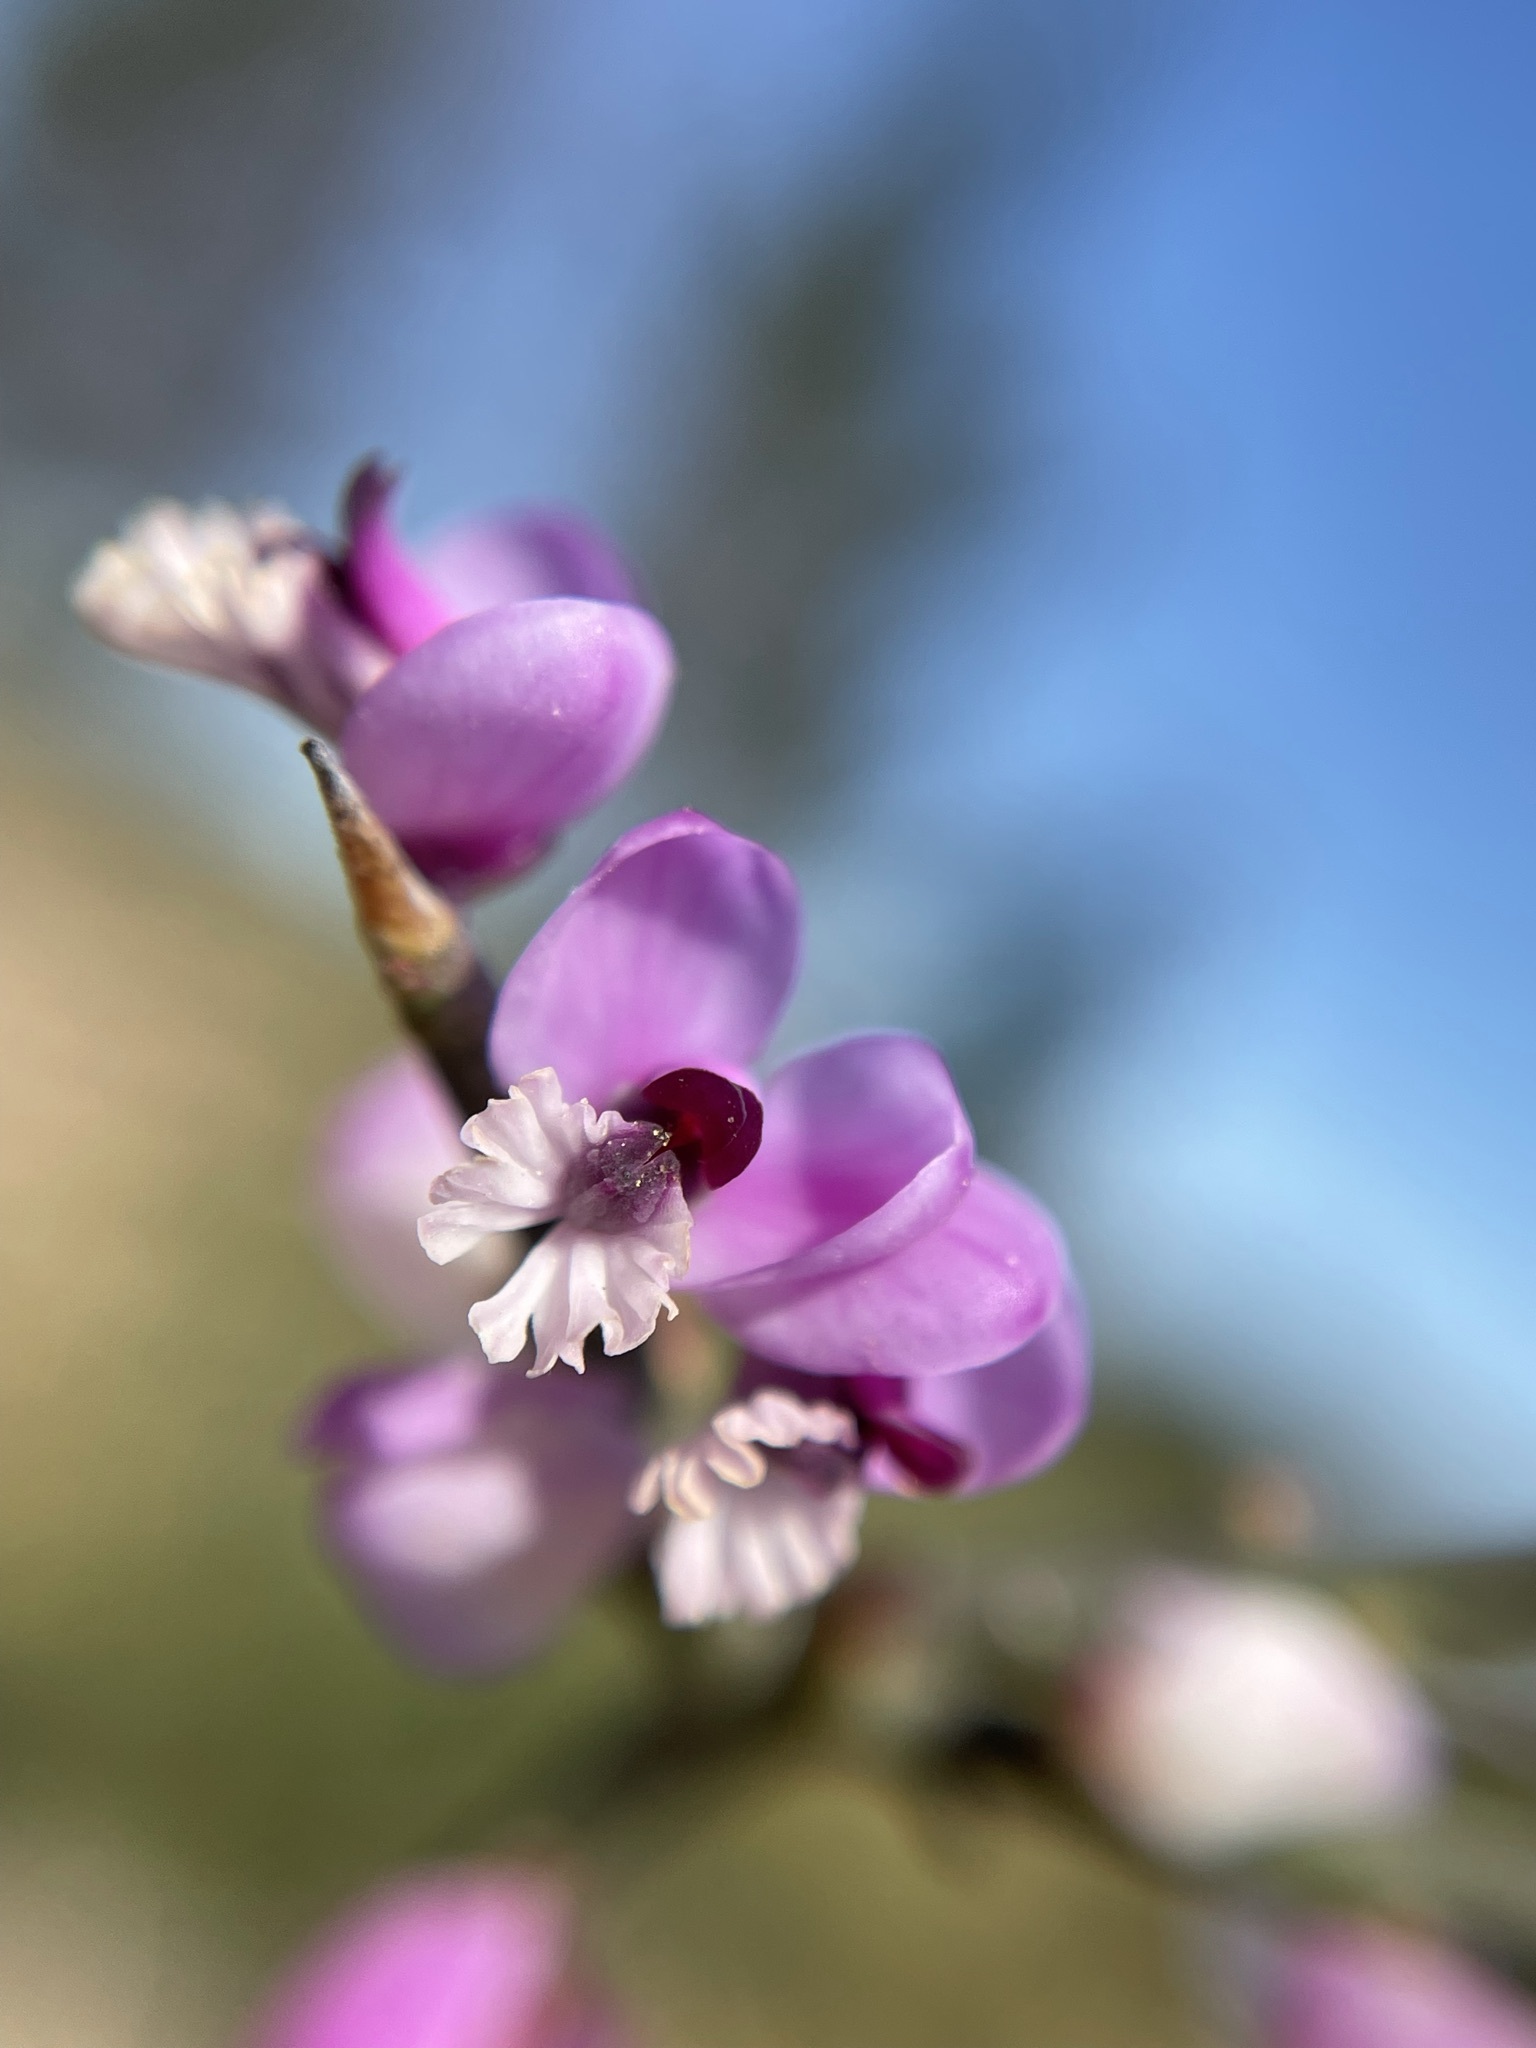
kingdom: Plantae
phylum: Tracheophyta
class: Magnoliopsida
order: Fabales
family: Polygalaceae
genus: Muraltia
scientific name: Muraltia spinosa
